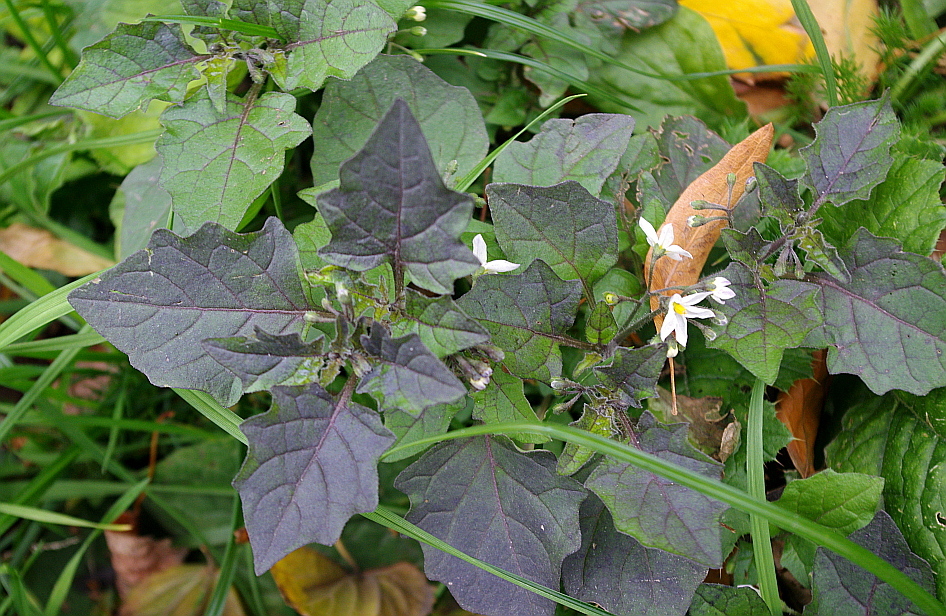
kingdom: Plantae
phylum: Tracheophyta
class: Magnoliopsida
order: Solanales
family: Solanaceae
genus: Solanum
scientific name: Solanum nigrum
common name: Black nightshade
